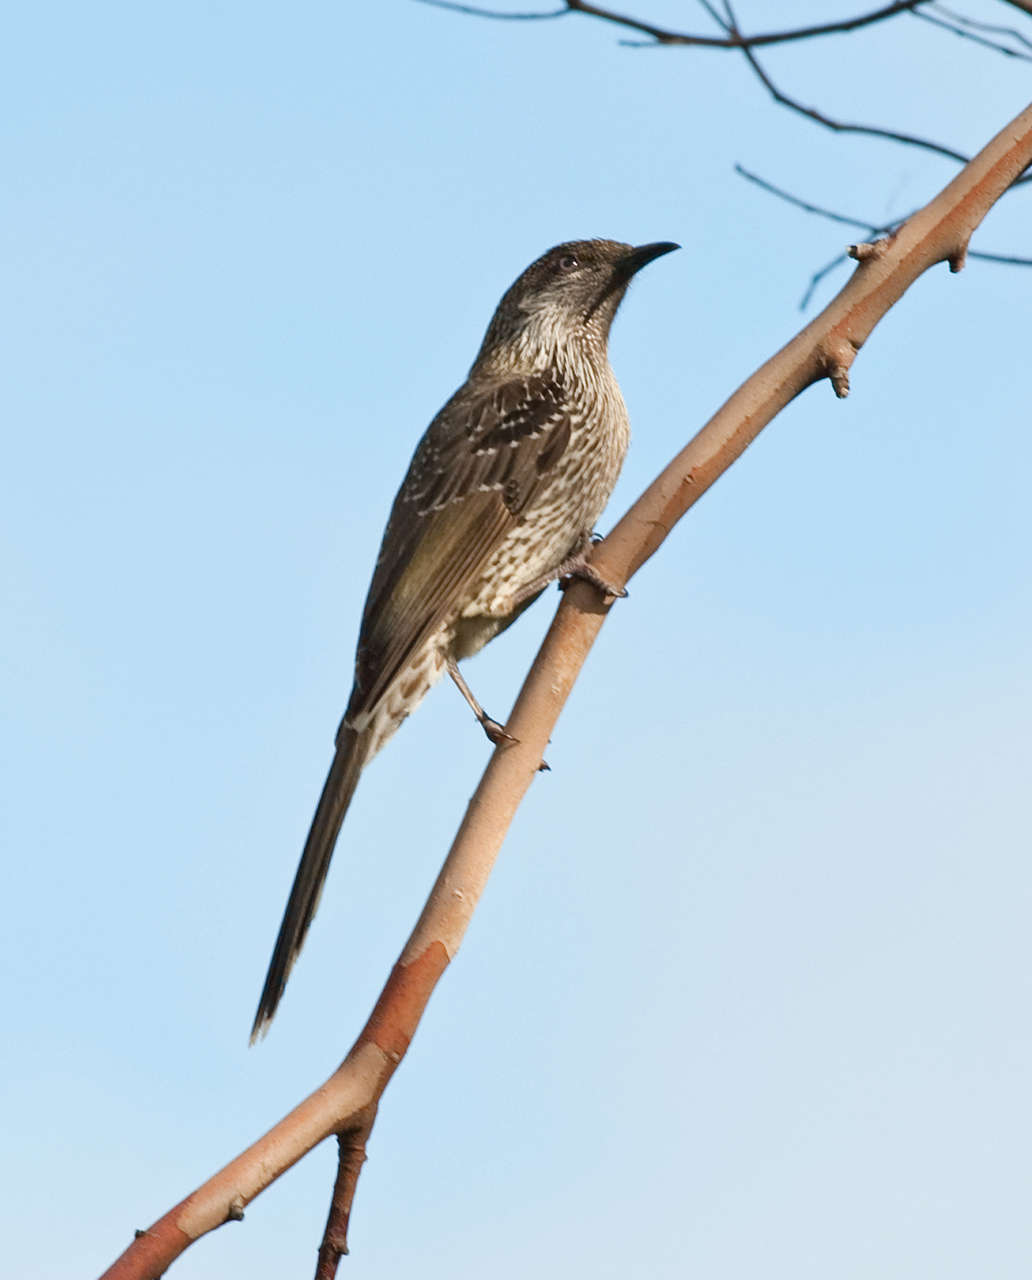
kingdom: Animalia
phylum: Chordata
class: Aves
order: Passeriformes
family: Meliphagidae
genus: Anthochaera
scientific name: Anthochaera chrysoptera
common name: Little wattlebird
